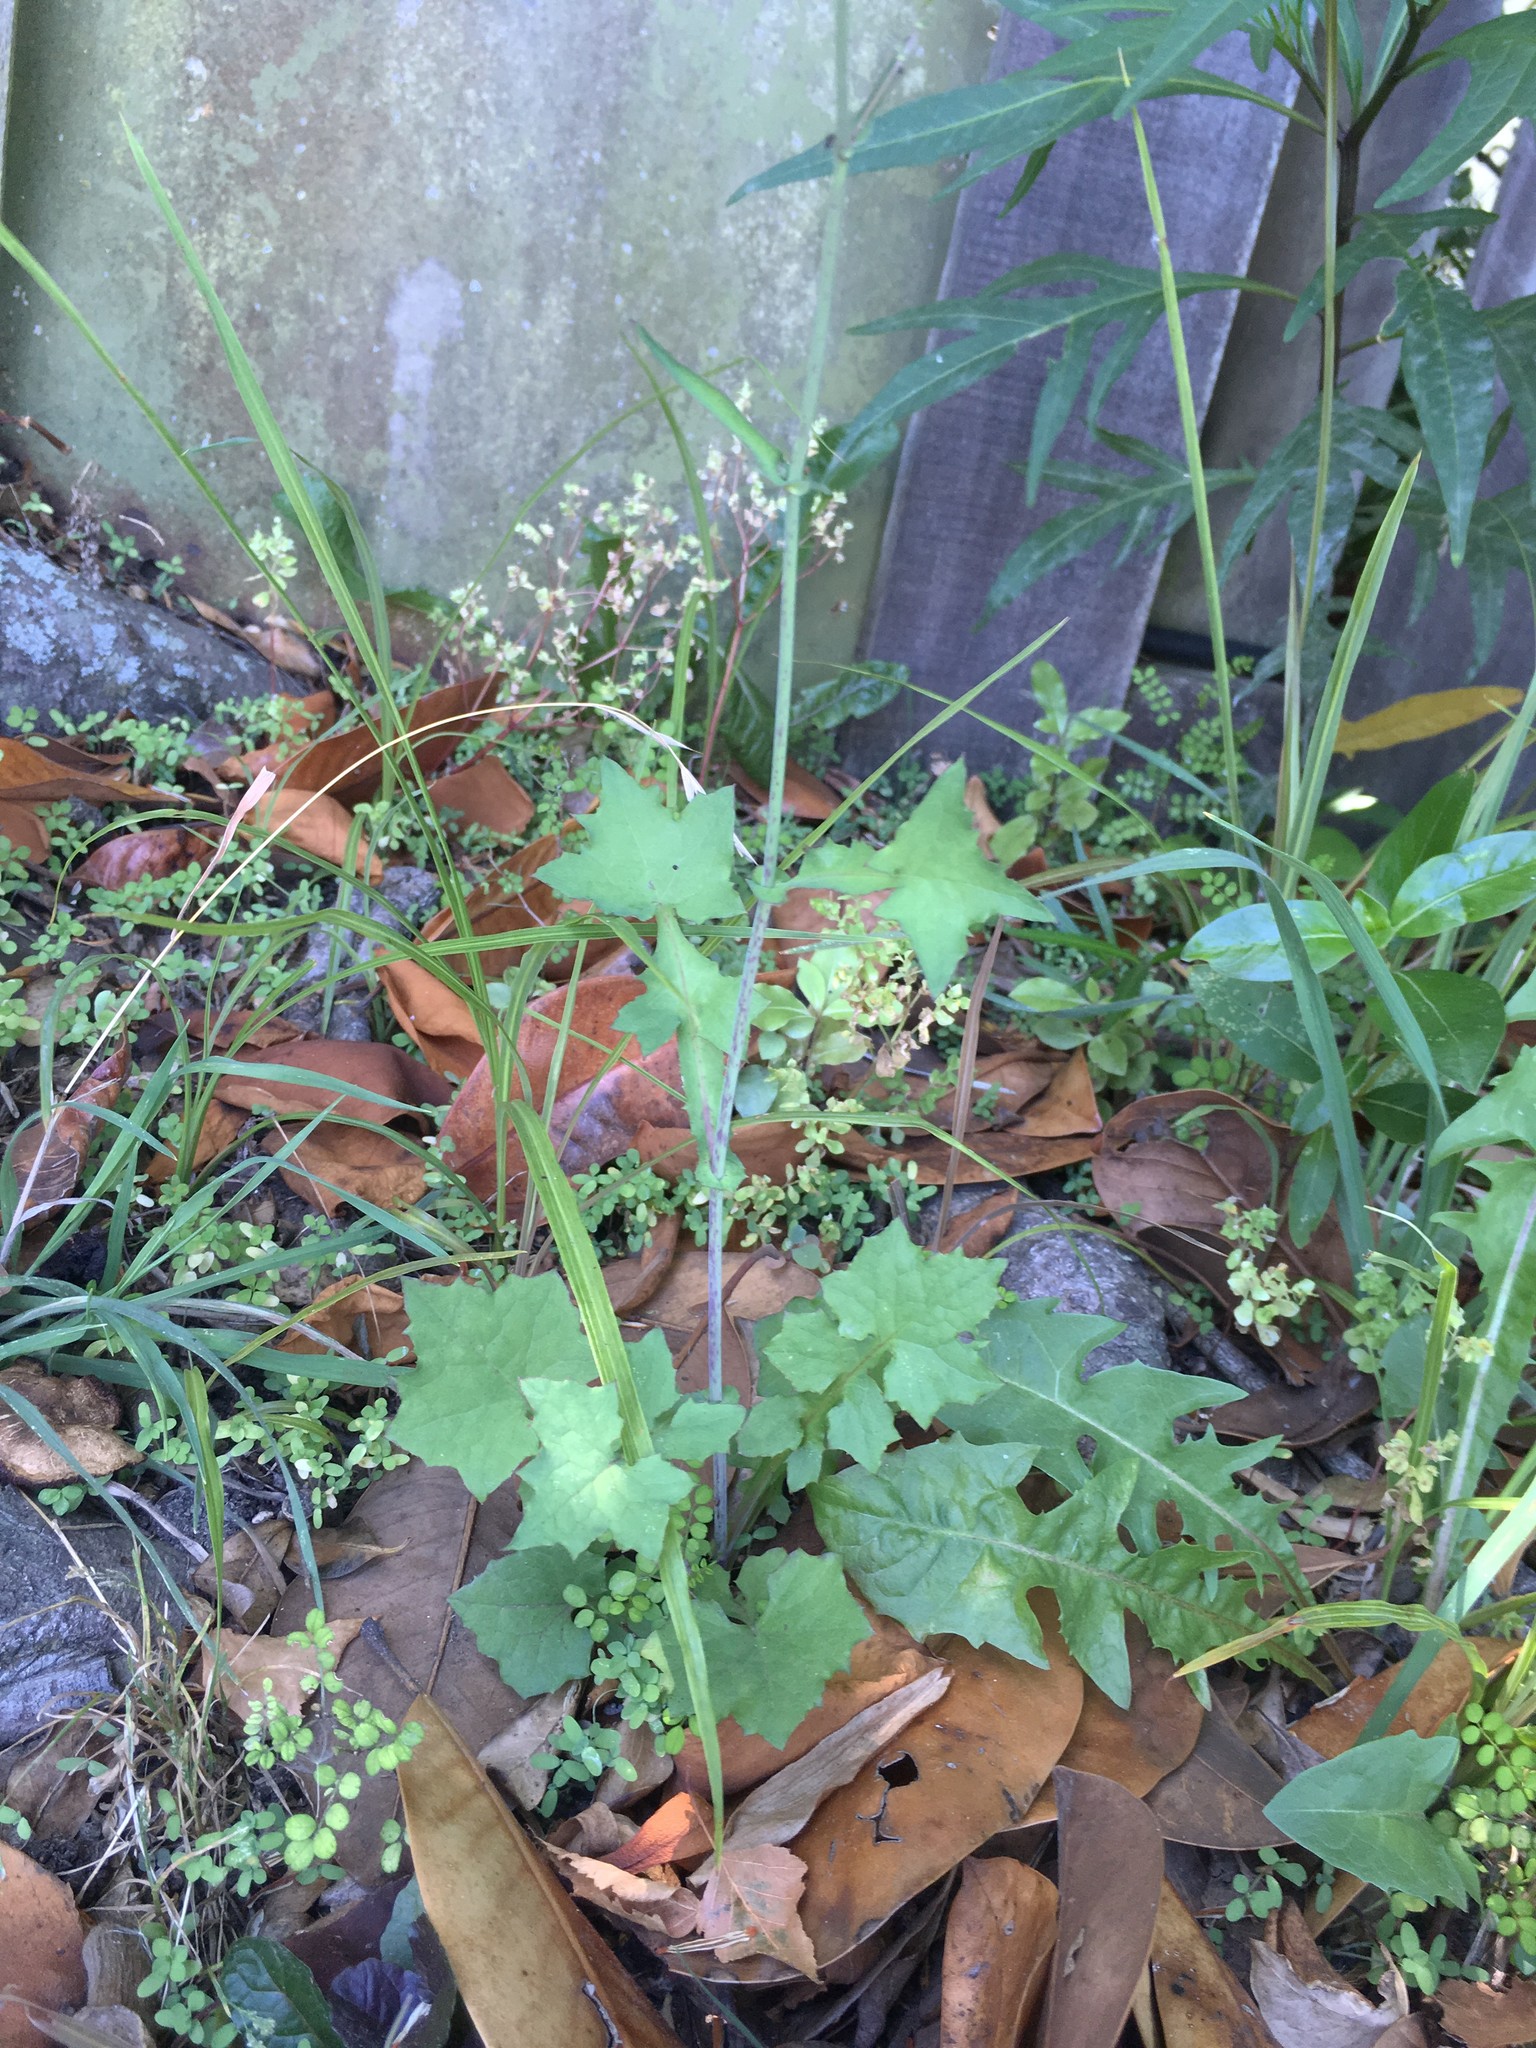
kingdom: Plantae
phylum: Tracheophyta
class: Magnoliopsida
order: Asterales
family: Asteraceae
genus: Mycelis
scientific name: Mycelis muralis
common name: Wall lettuce
